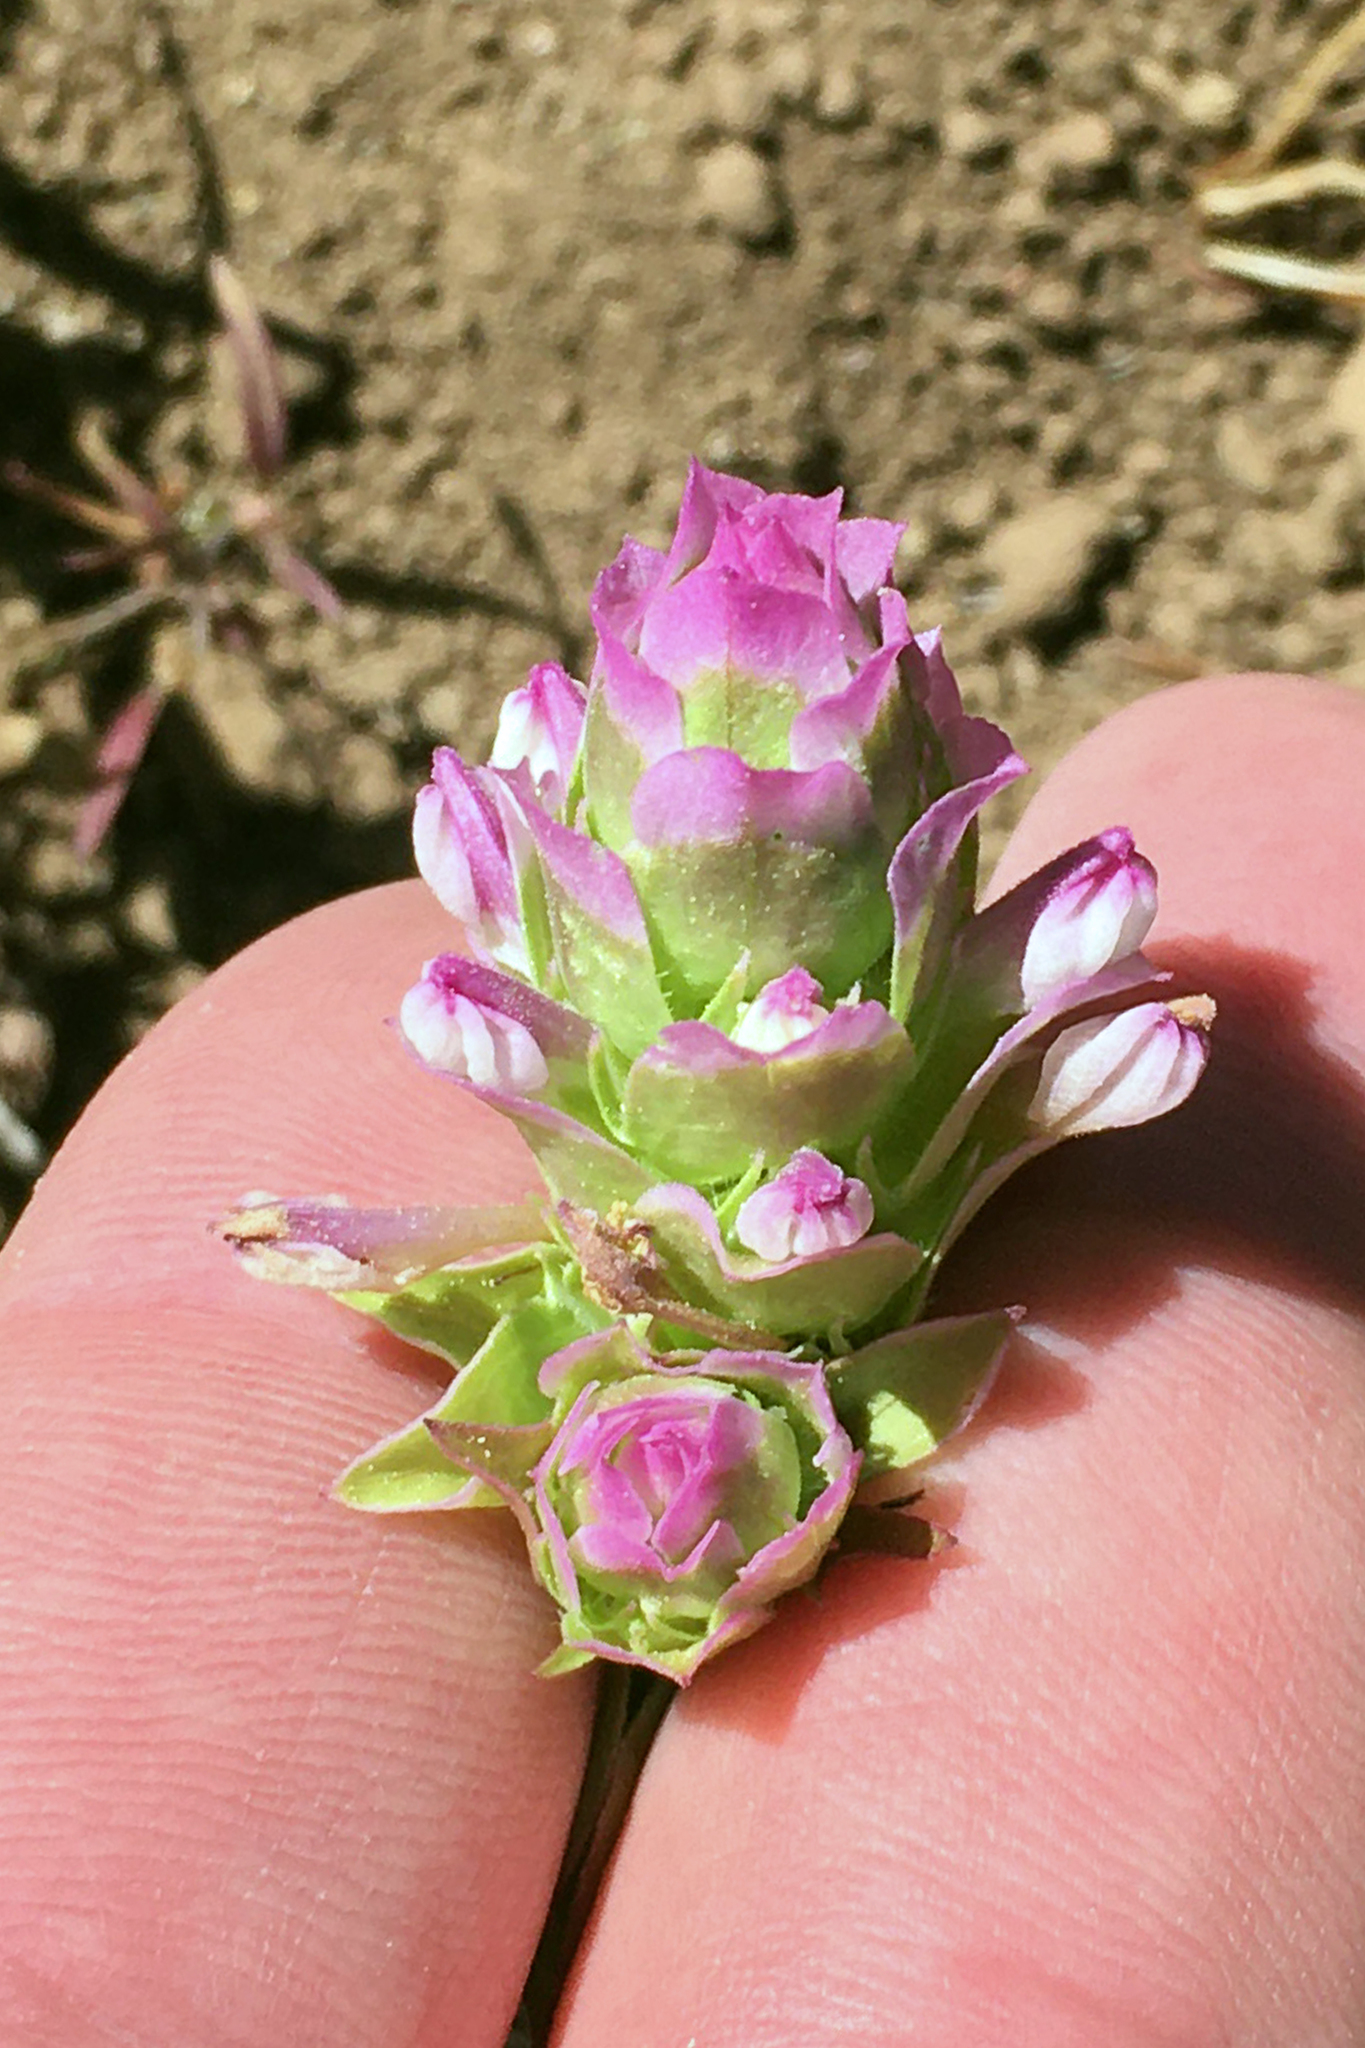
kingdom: Plantae
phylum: Tracheophyta
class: Magnoliopsida
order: Lamiales
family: Orobanchaceae
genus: Orthocarpus
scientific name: Orthocarpus cuspidatus
